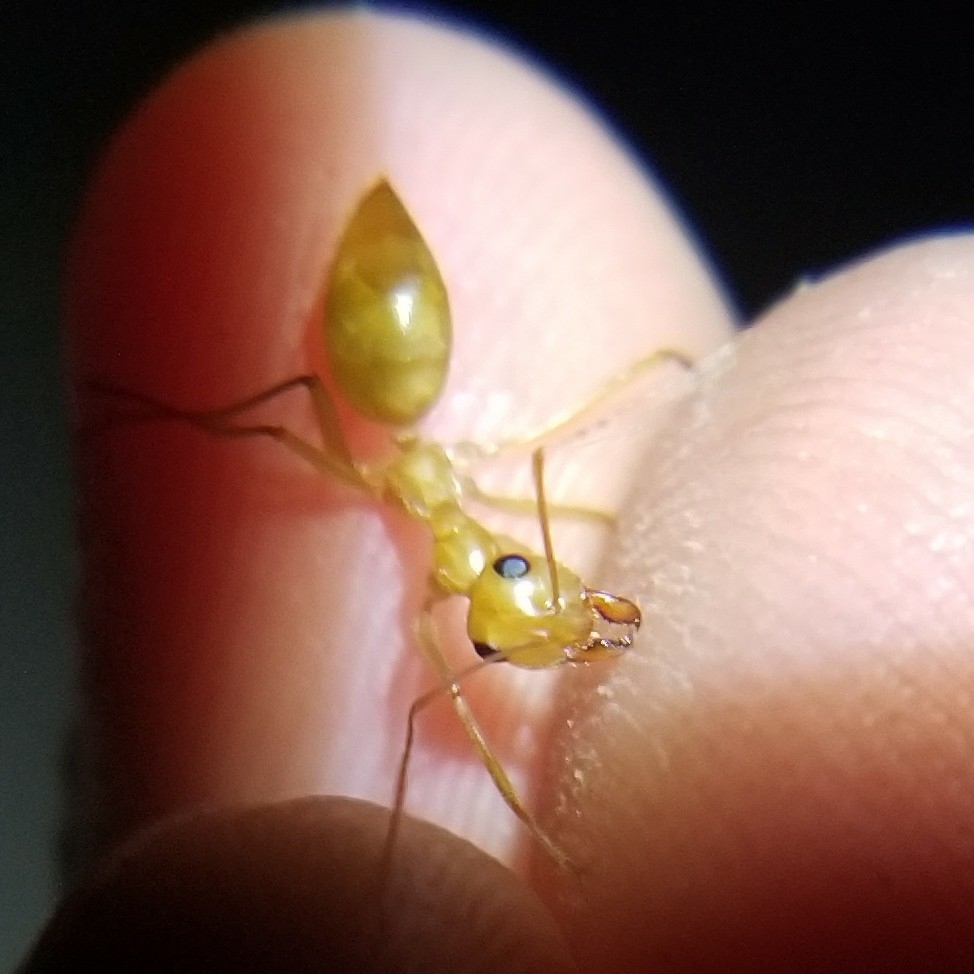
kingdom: Animalia
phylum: Arthropoda
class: Insecta
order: Hymenoptera
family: Formicidae
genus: Myrmecocystus
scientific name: Myrmecocystus mexicanus
